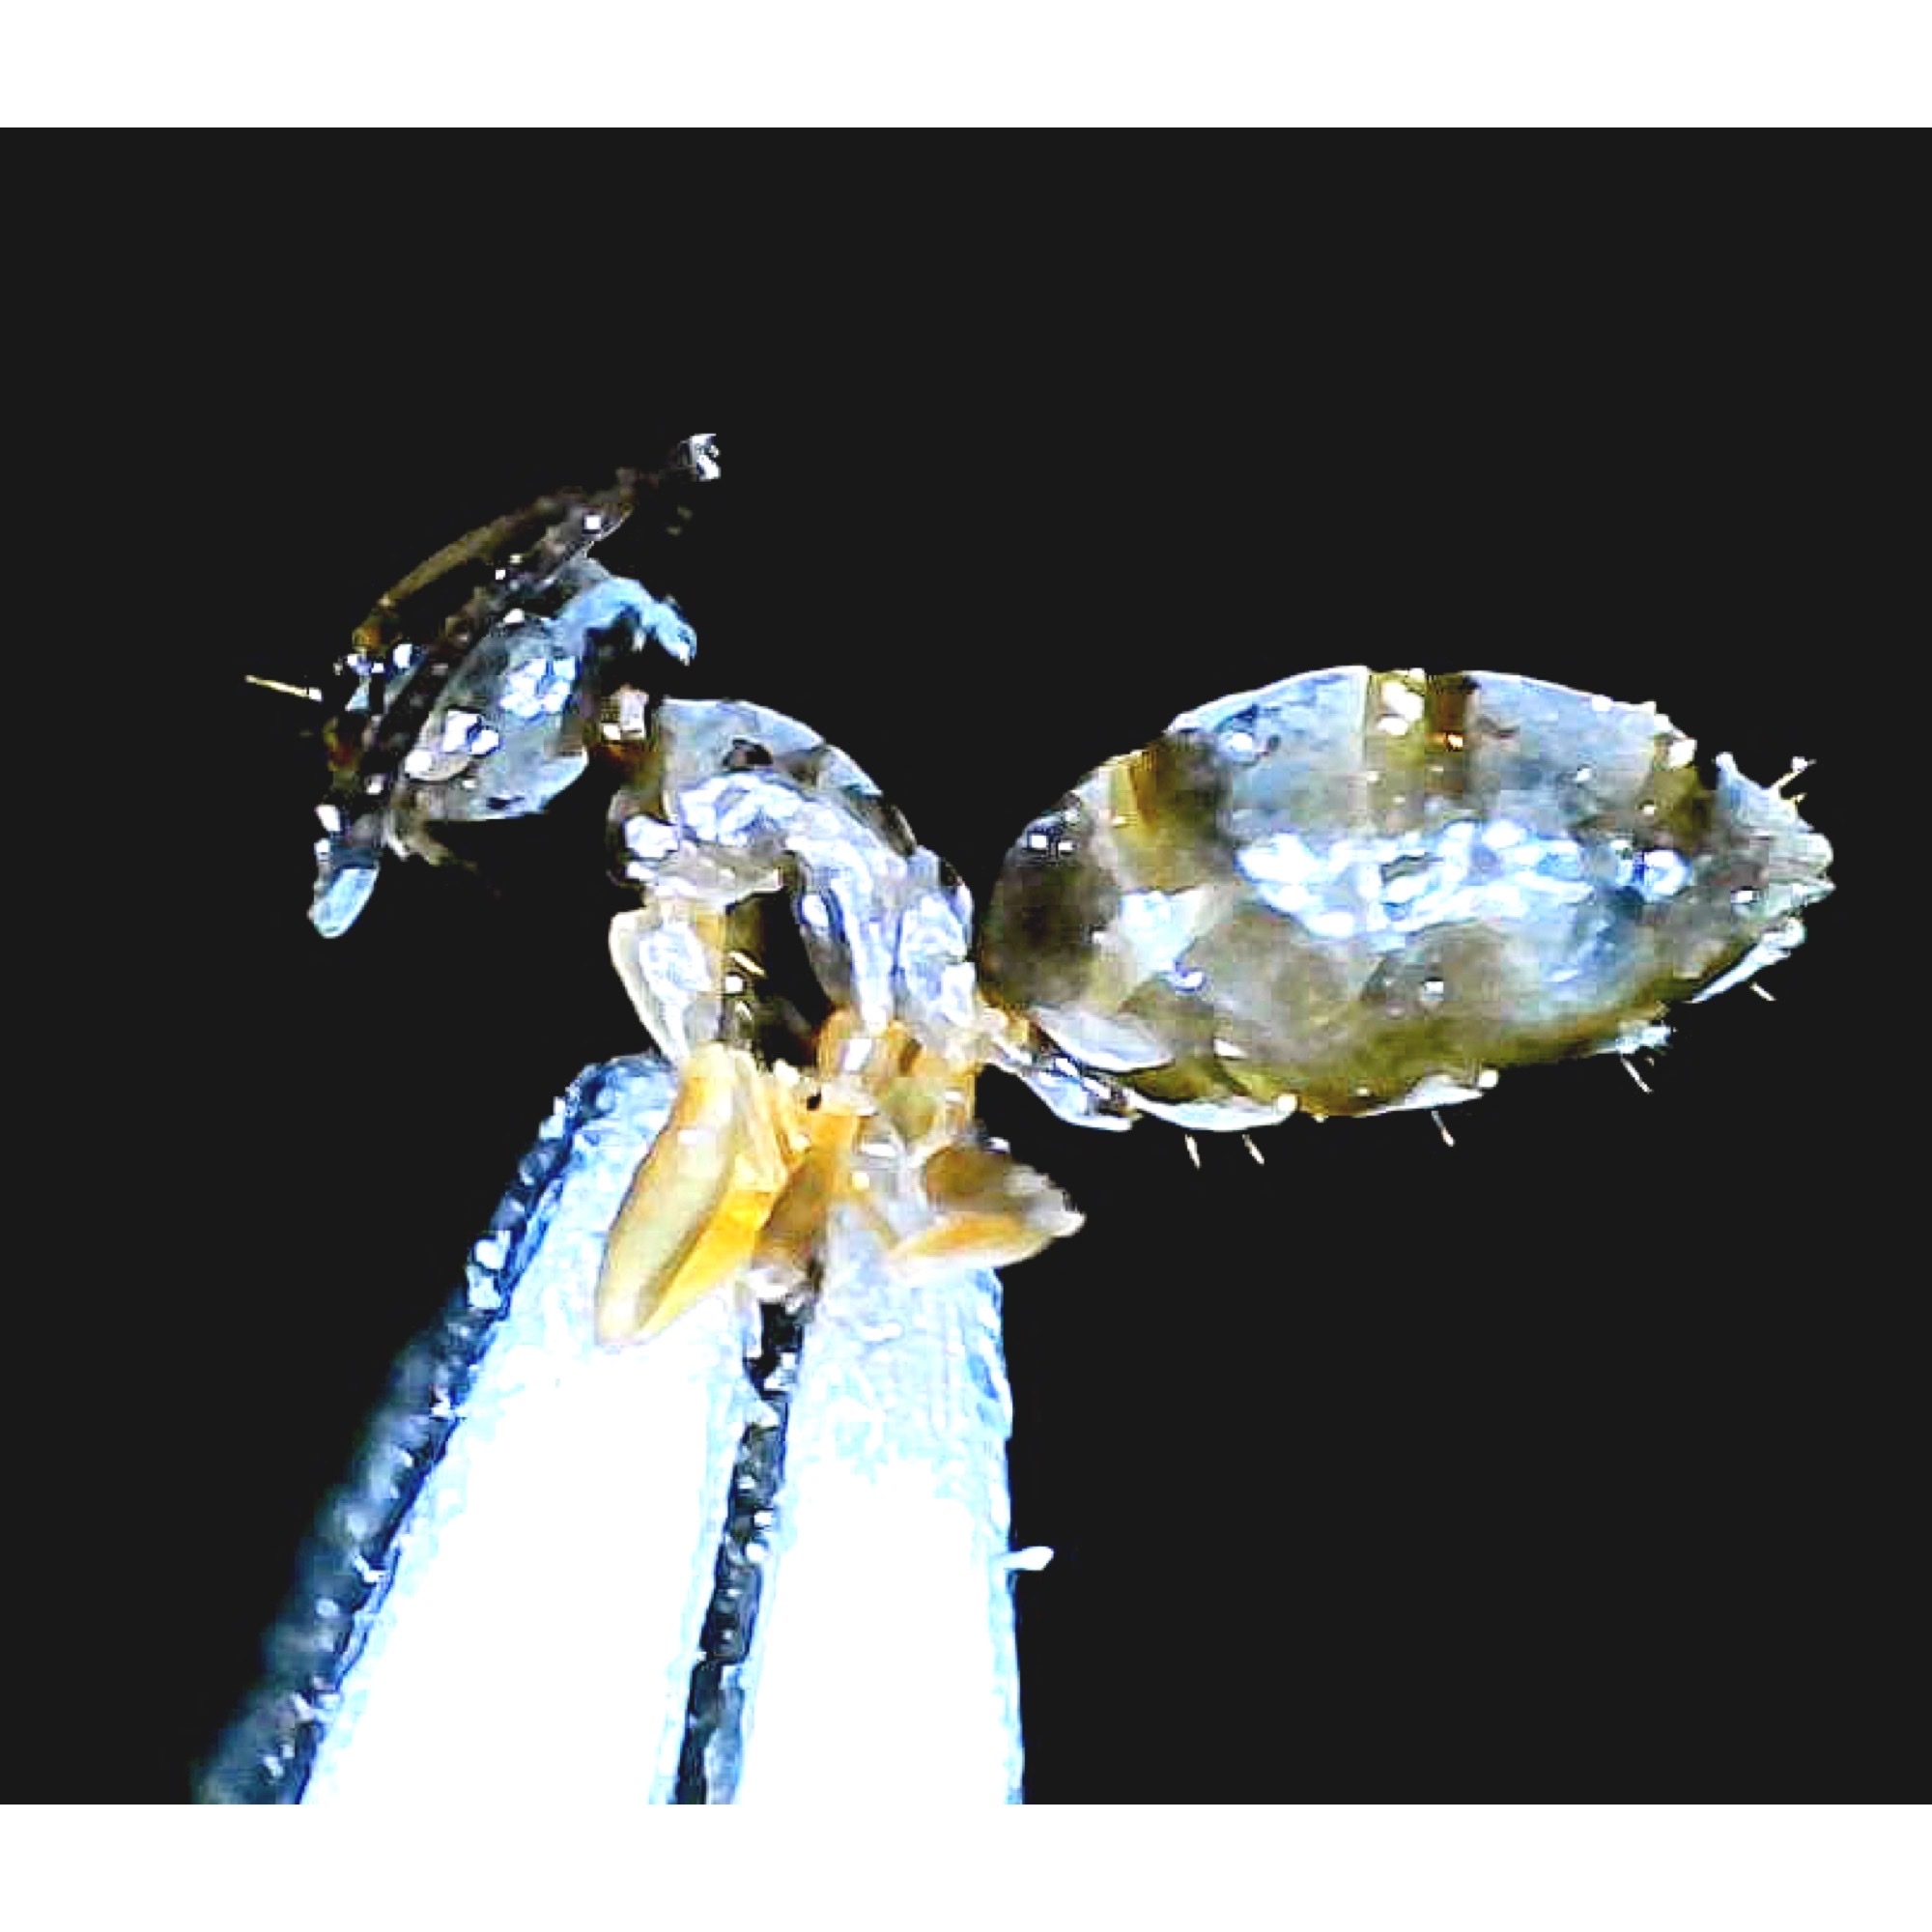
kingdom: Animalia
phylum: Arthropoda
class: Insecta
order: Hymenoptera
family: Formicidae
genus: Tapinoma
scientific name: Tapinoma sessile
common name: Odorous house ant
